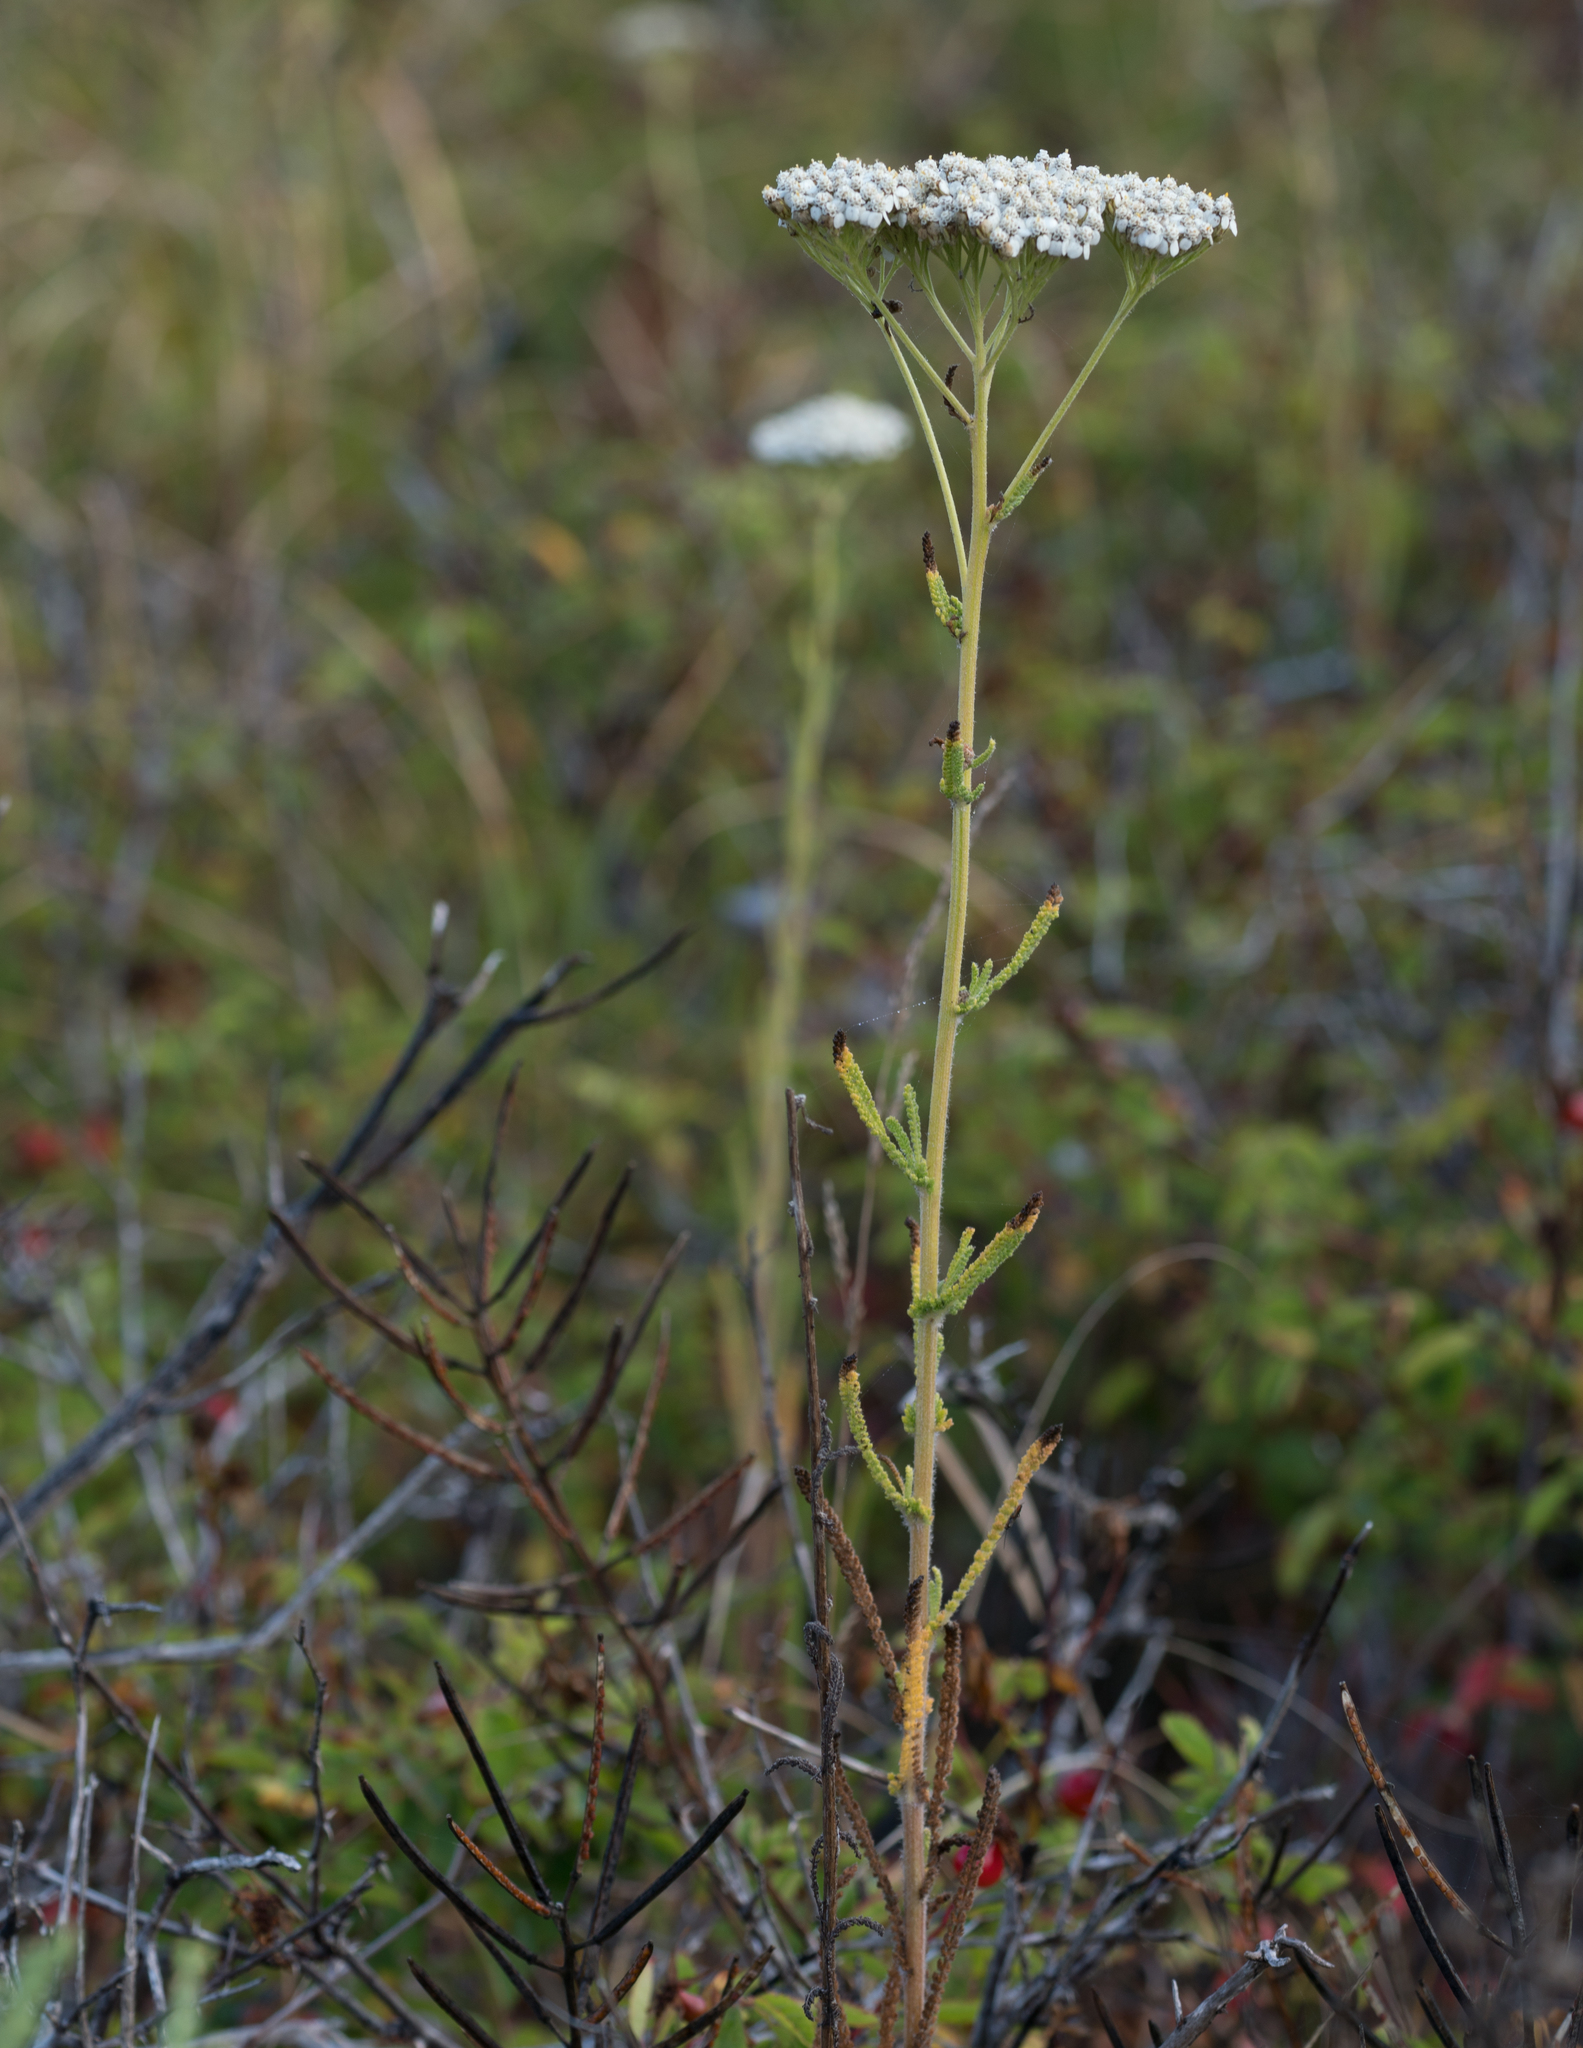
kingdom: Plantae
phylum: Tracheophyta
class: Magnoliopsida
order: Asterales
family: Asteraceae
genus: Achillea
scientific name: Achillea millefolium
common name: Yarrow
